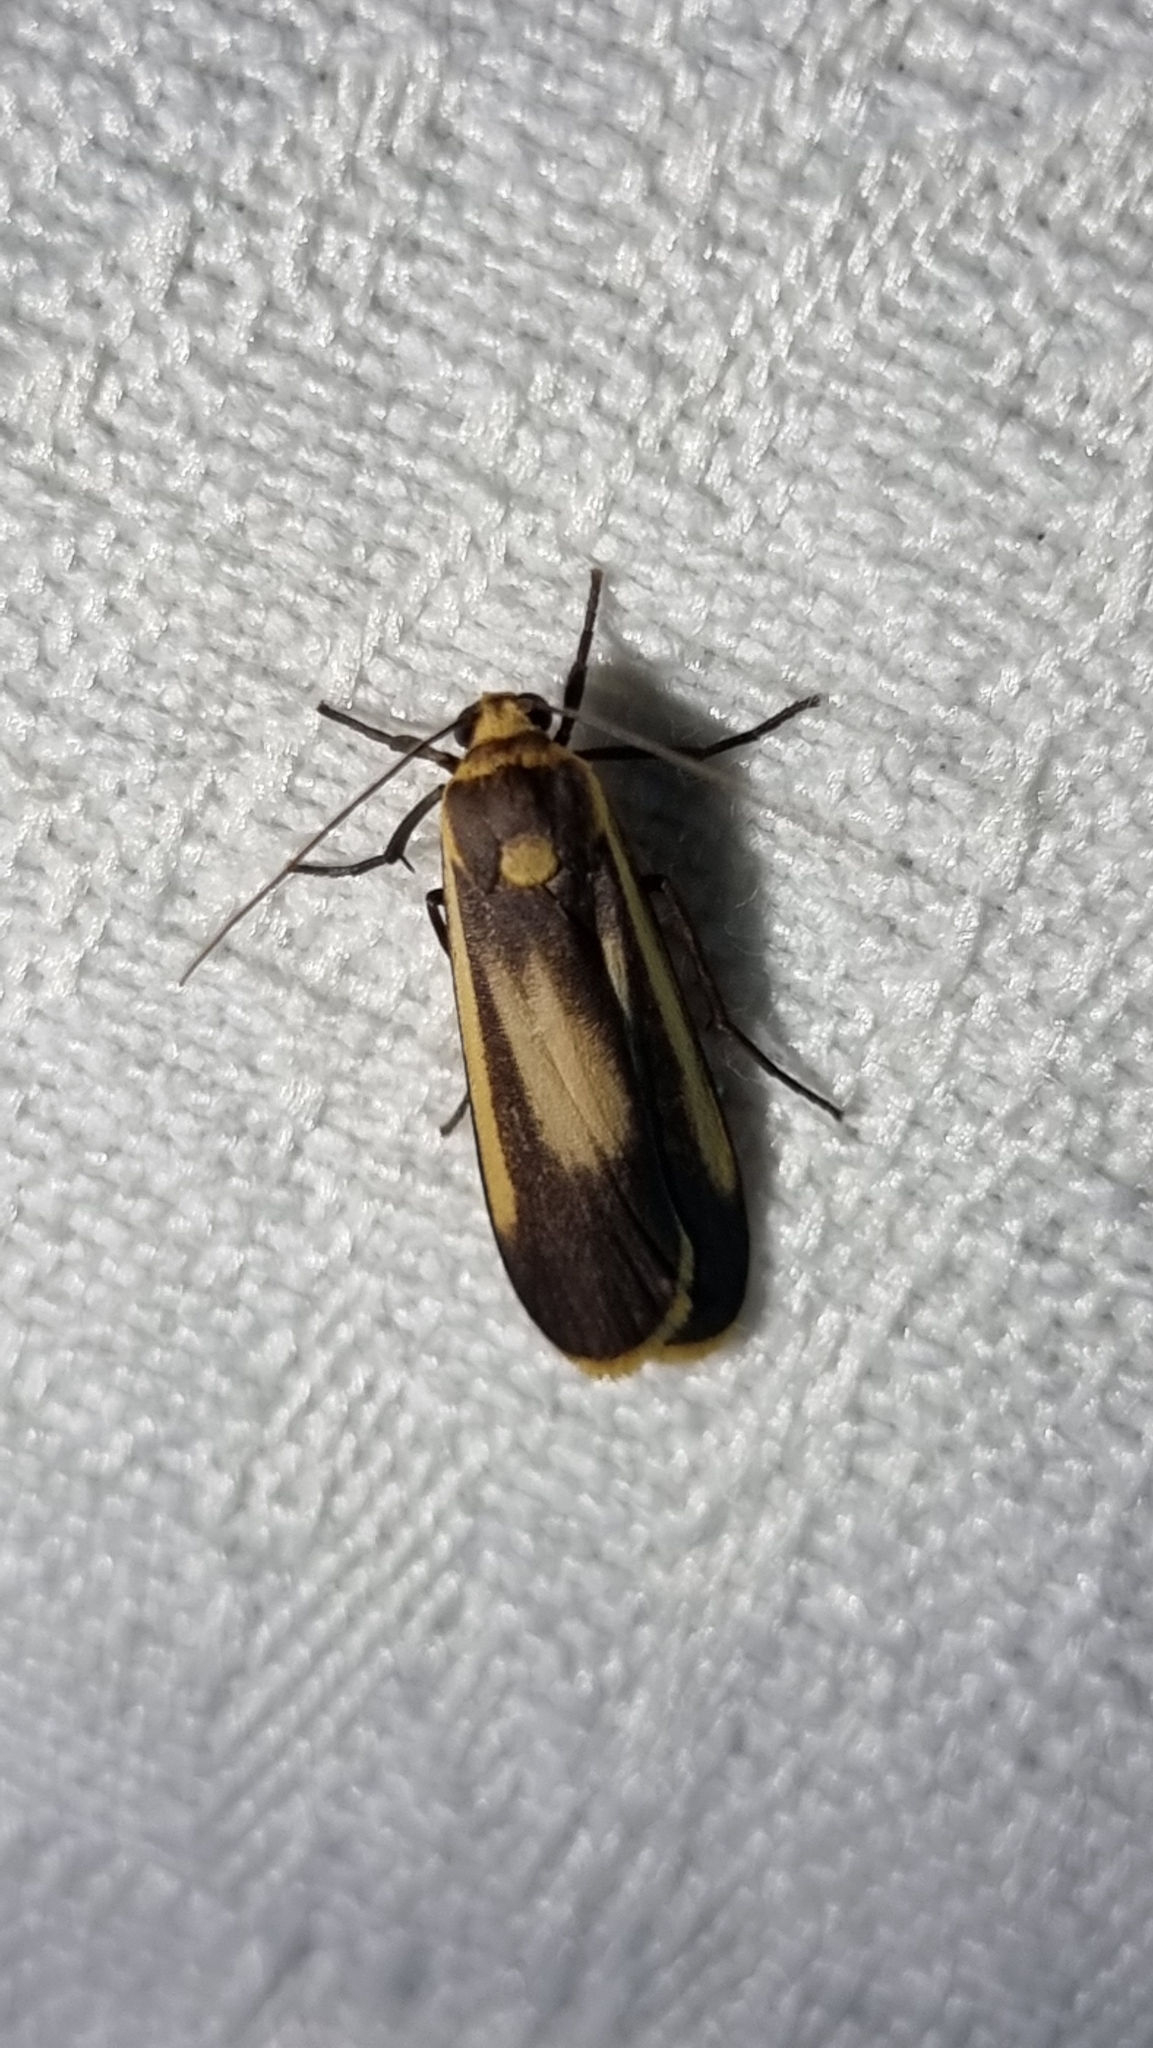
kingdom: Animalia
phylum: Arthropoda
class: Insecta
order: Lepidoptera
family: Erebidae
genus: Brunia
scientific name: Brunia replana
